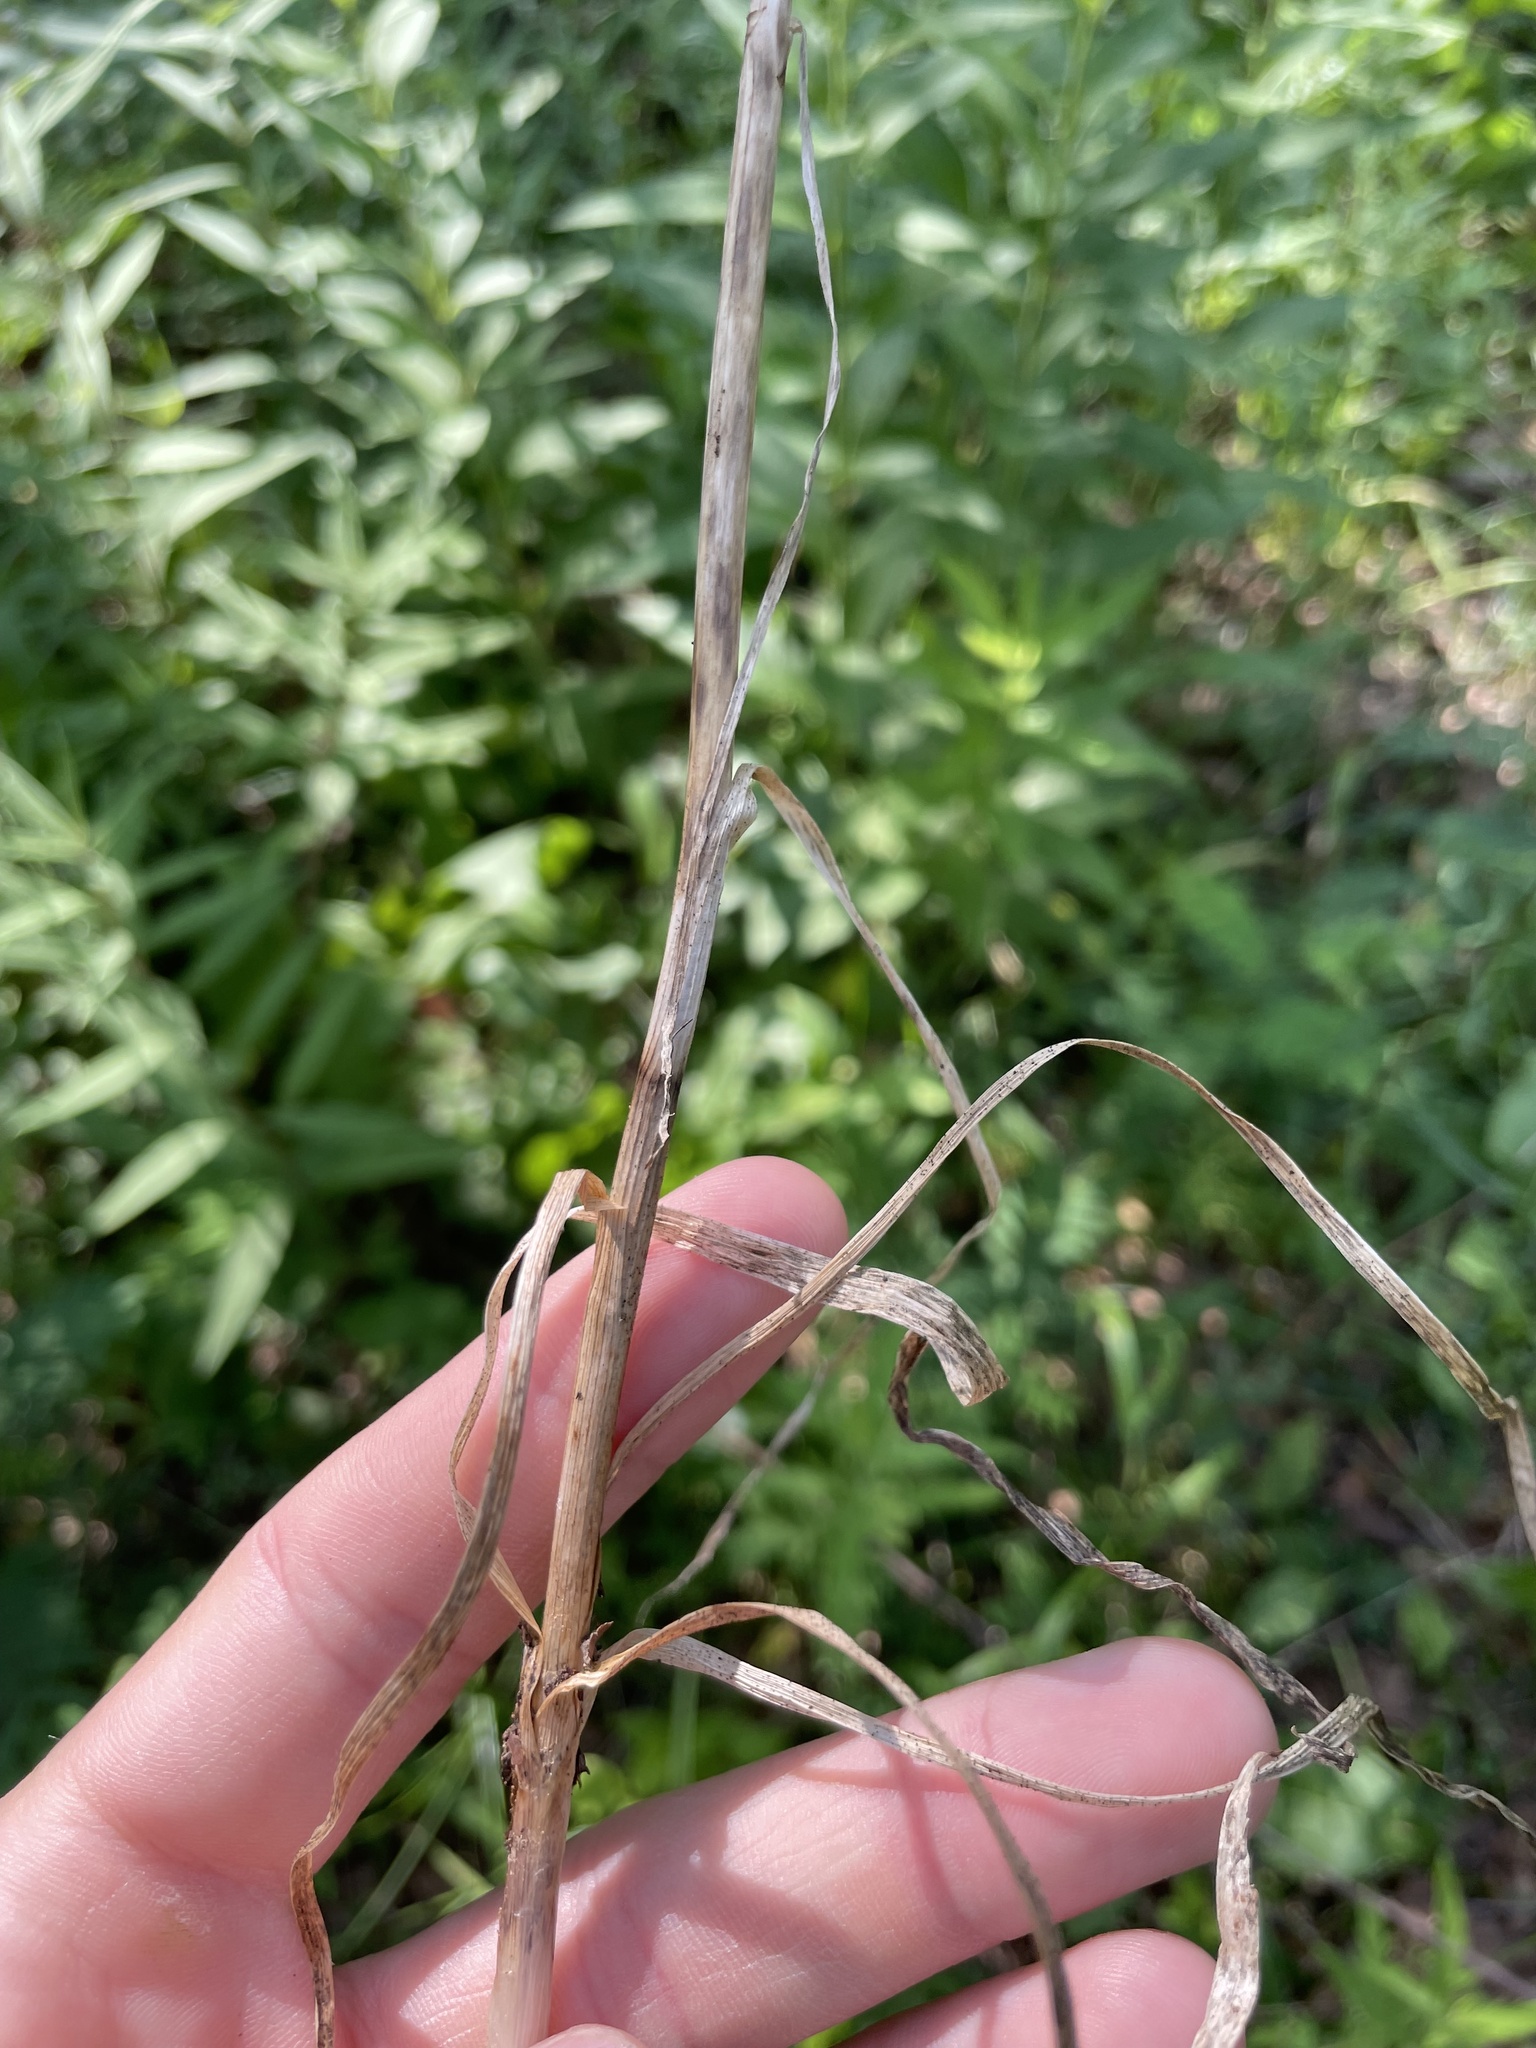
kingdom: Plantae
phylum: Tracheophyta
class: Liliopsida
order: Liliales
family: Melanthiaceae
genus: Toxicoscordion
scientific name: Toxicoscordion nuttallii
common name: Poison sego
